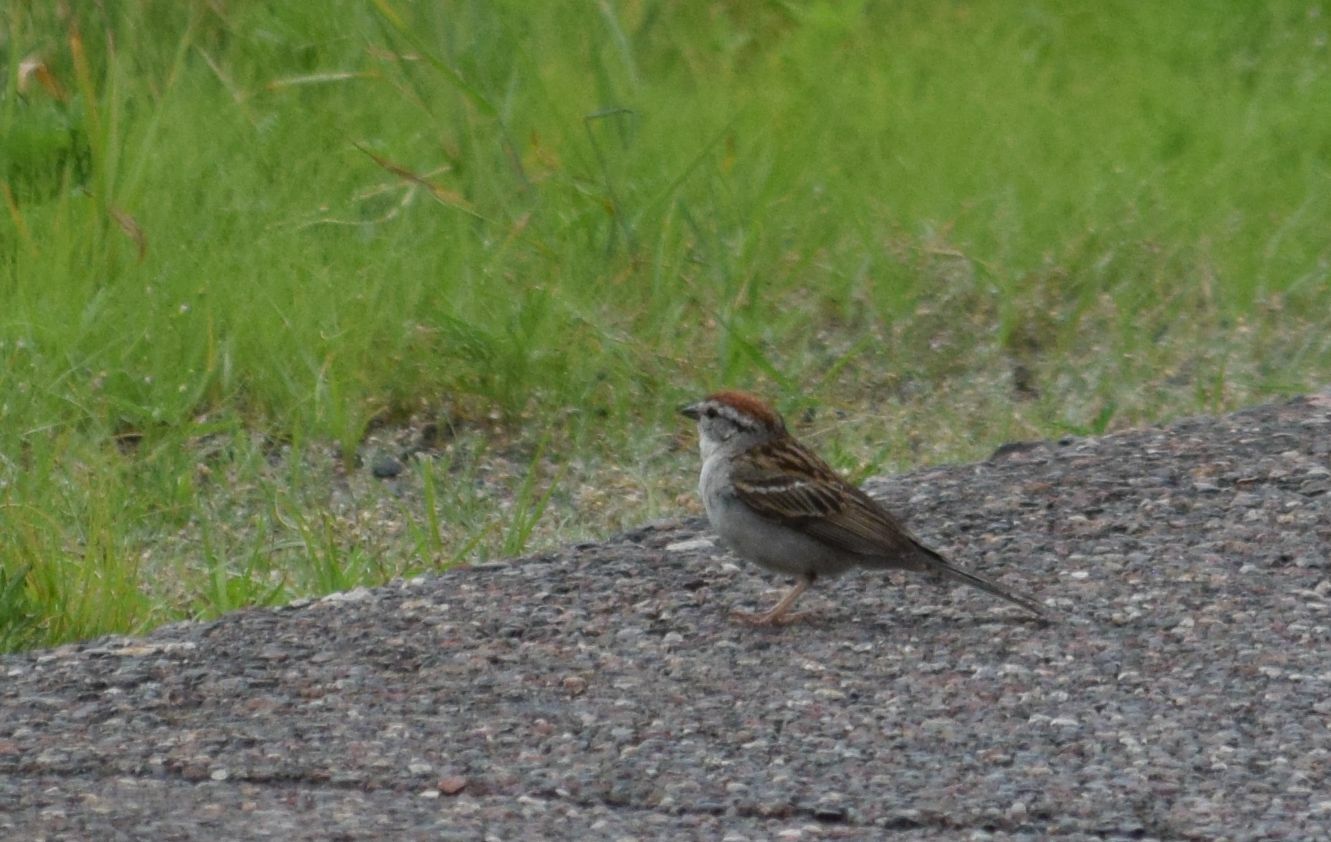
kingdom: Animalia
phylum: Chordata
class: Aves
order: Passeriformes
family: Passerellidae
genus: Spizella
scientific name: Spizella passerina
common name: Chipping sparrow
